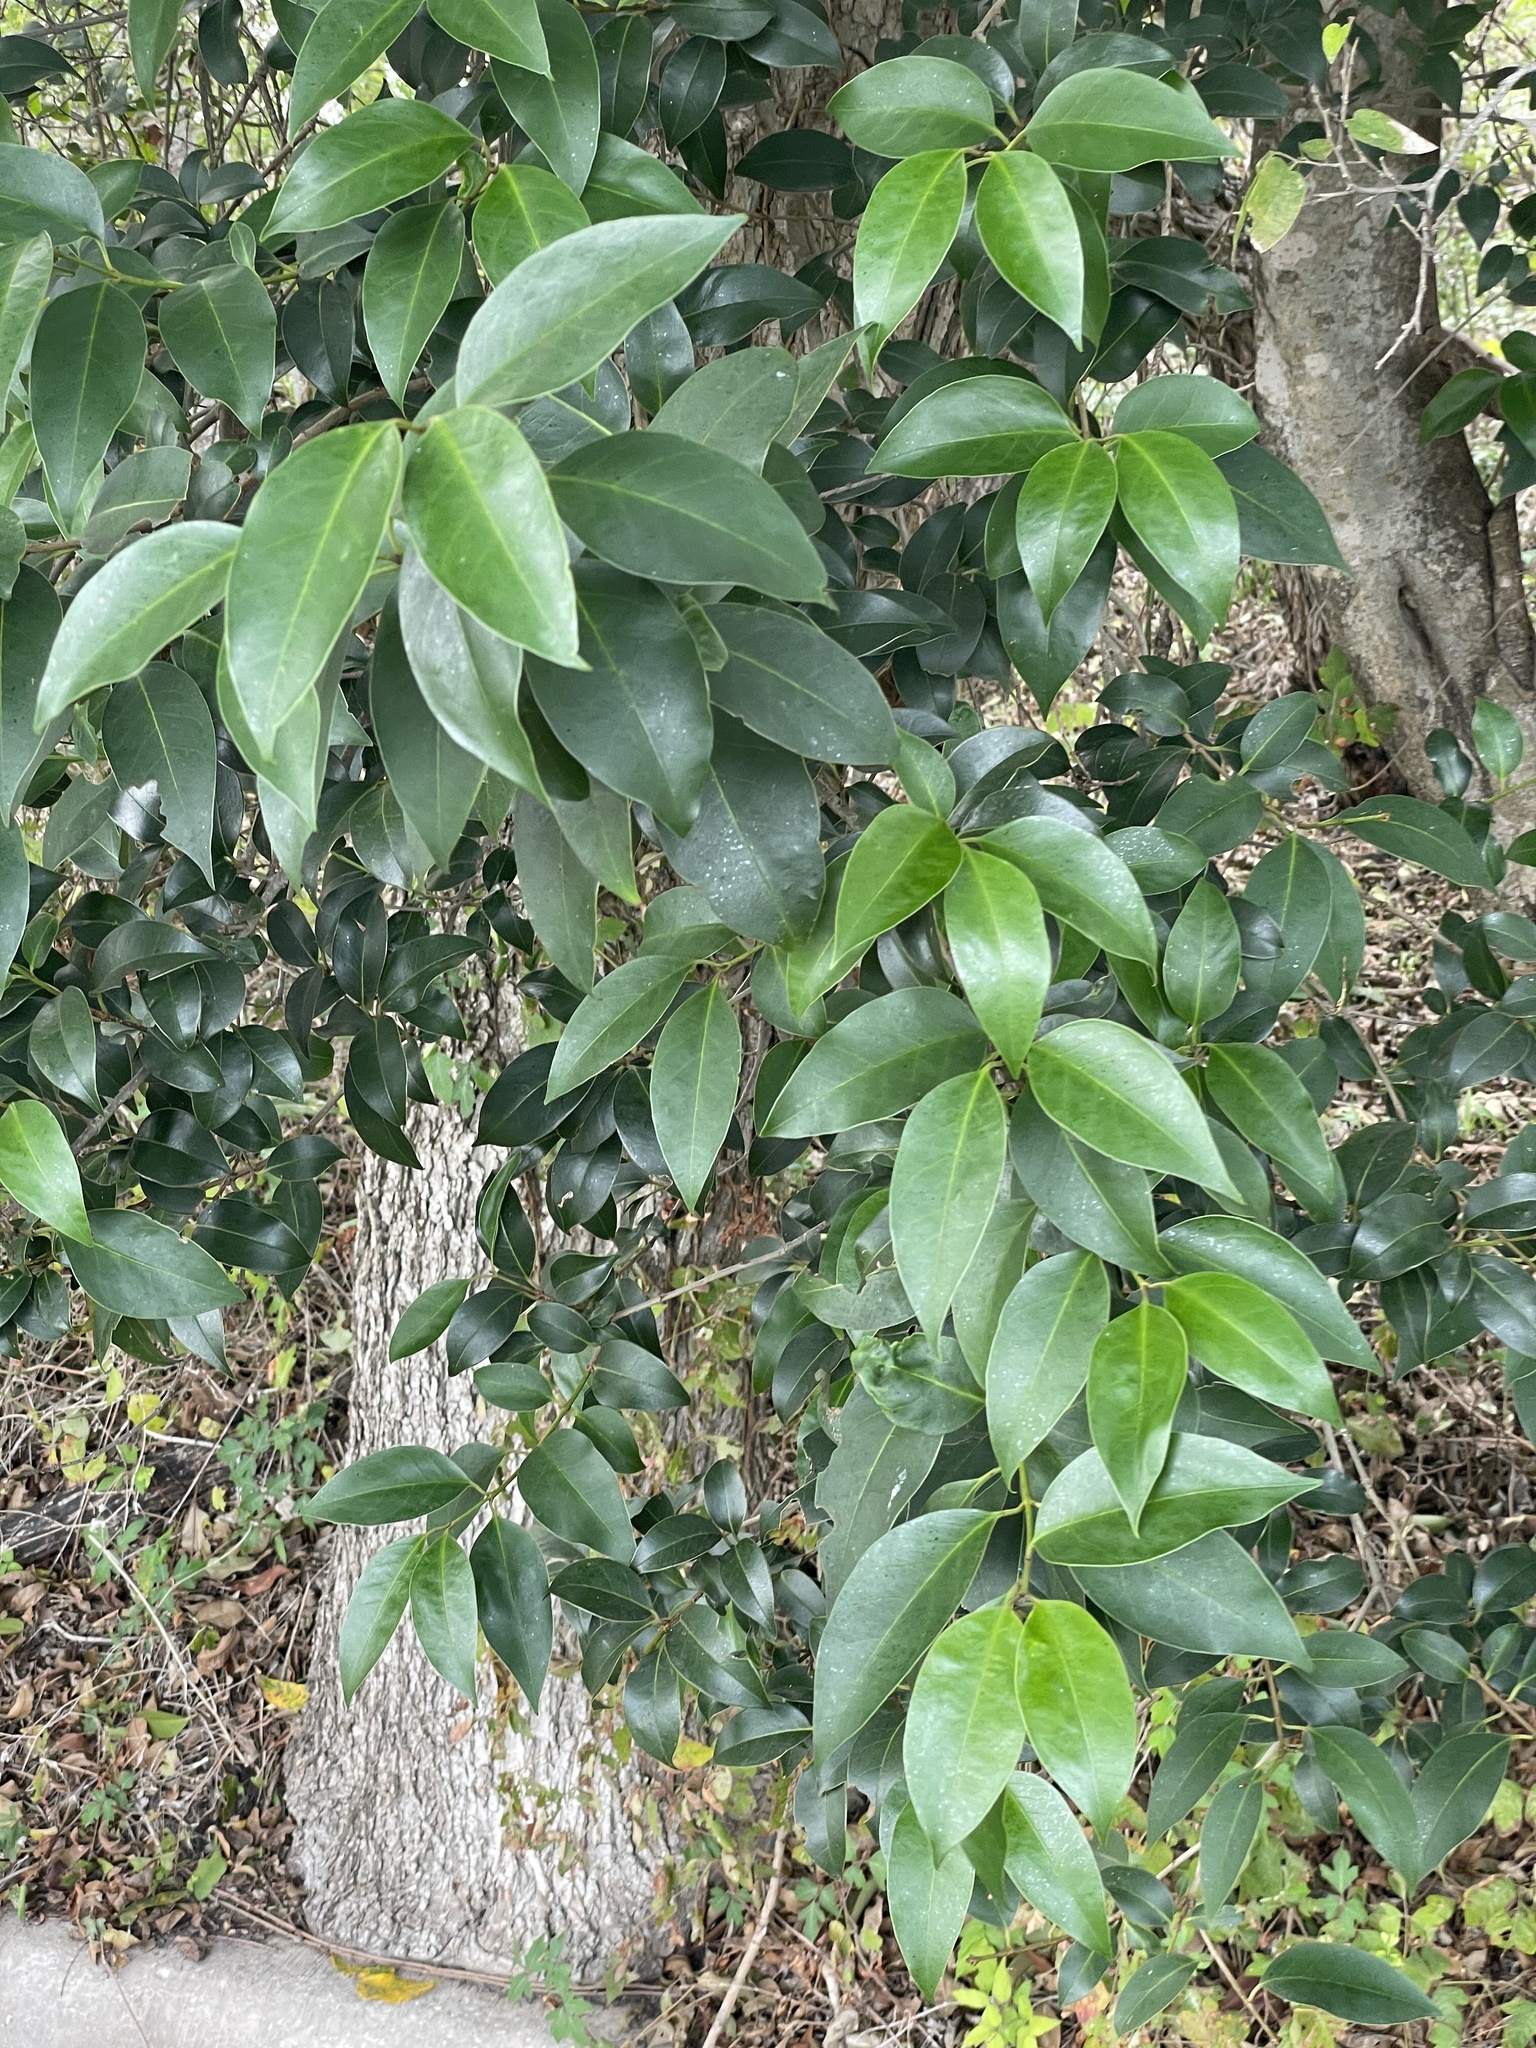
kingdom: Plantae
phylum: Tracheophyta
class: Magnoliopsida
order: Lamiales
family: Oleaceae
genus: Ligustrum
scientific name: Ligustrum lucidum
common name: Glossy privet
